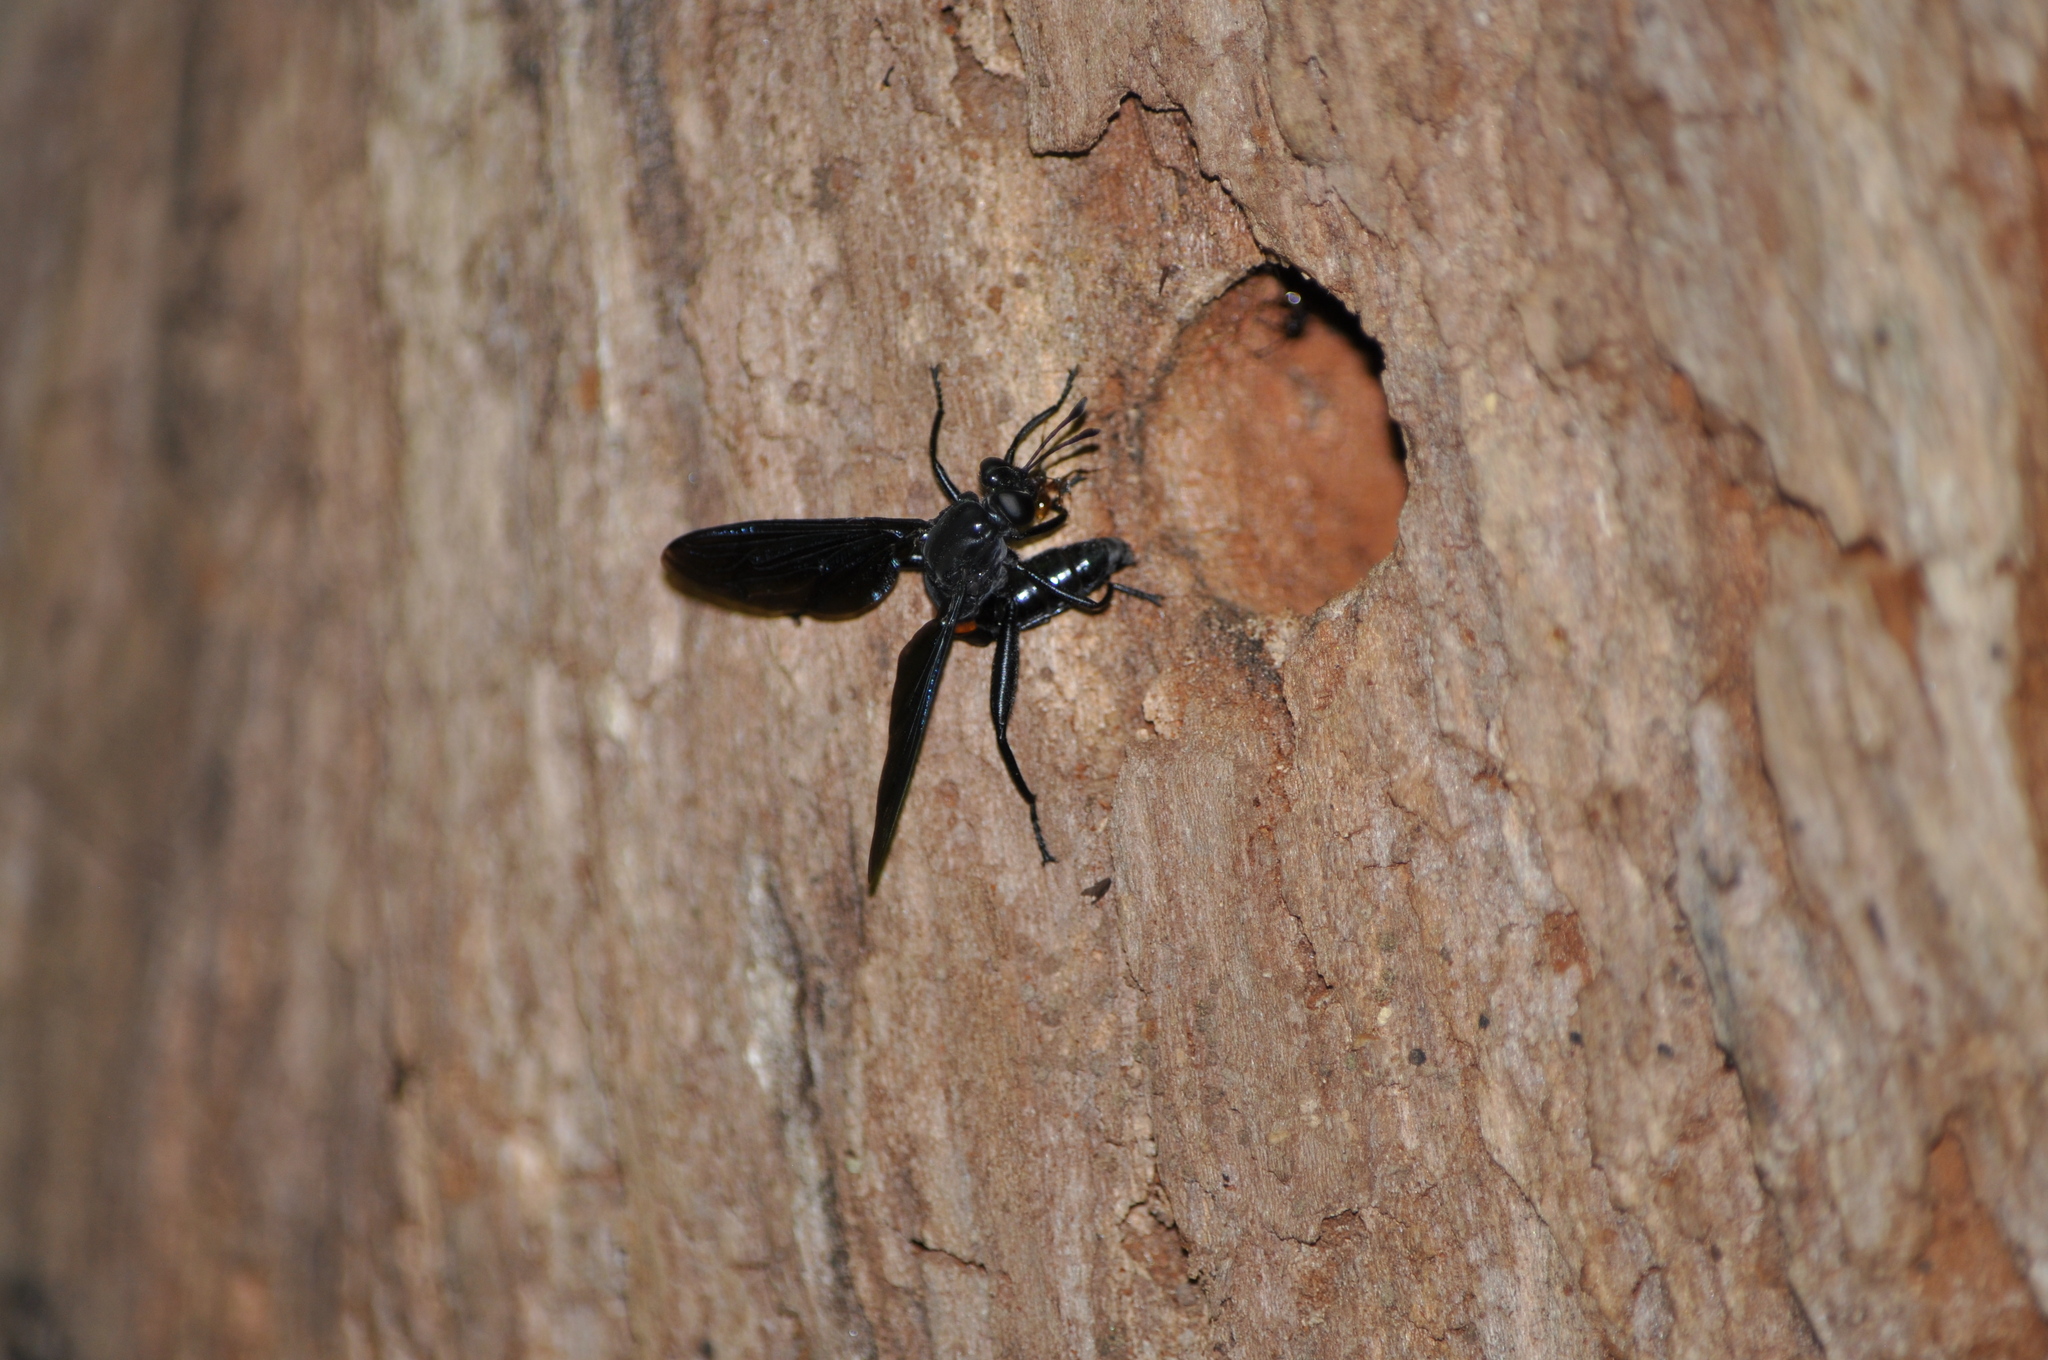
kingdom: Animalia
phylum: Arthropoda
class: Insecta
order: Diptera
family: Mydidae
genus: Mydas
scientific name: Mydas clavatus
